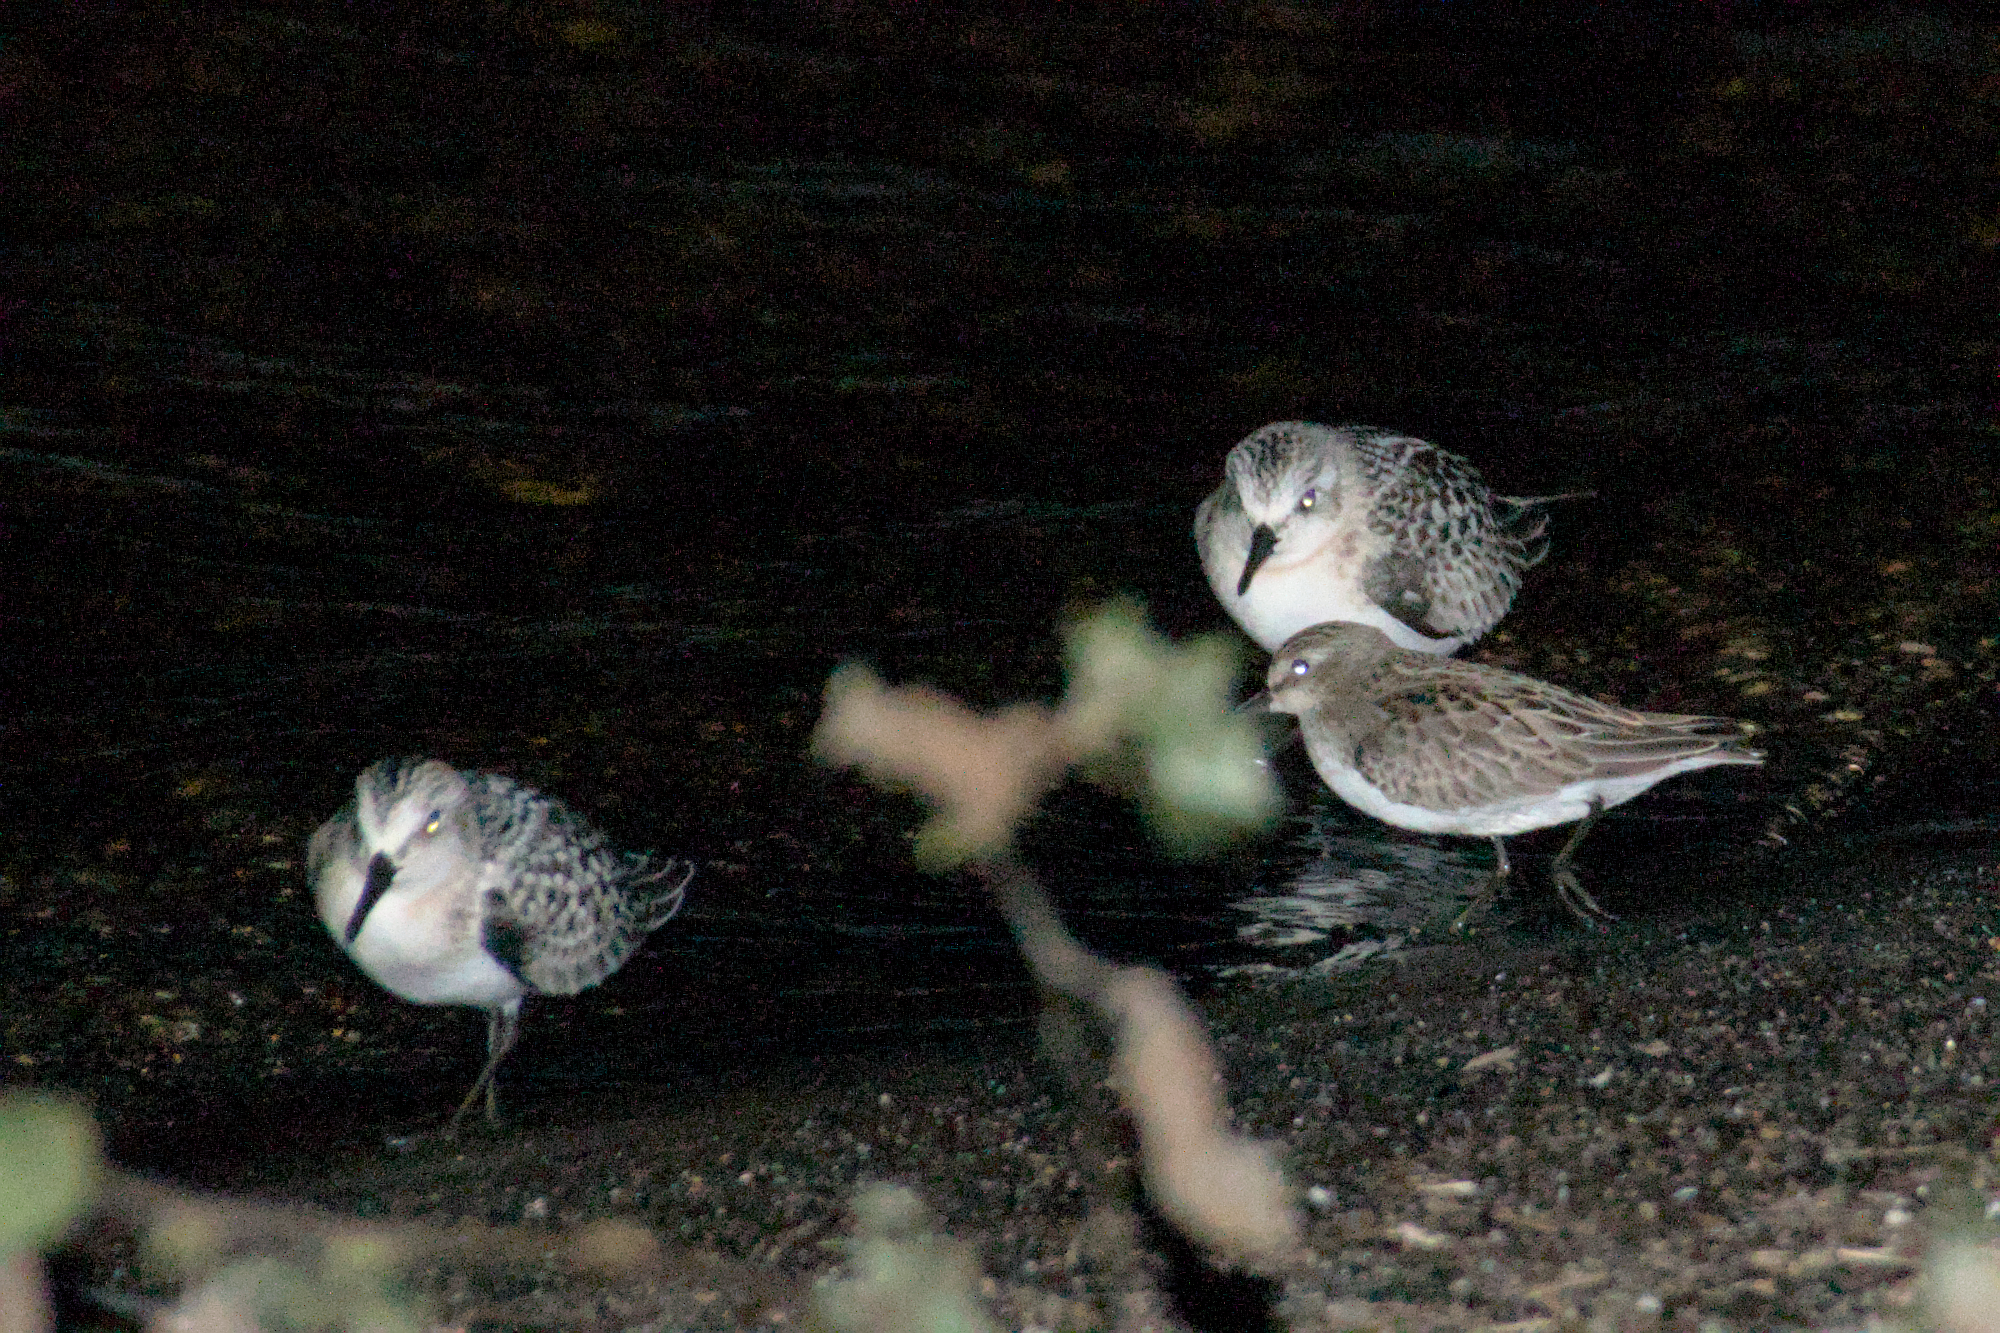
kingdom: Animalia
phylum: Chordata
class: Aves
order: Charadriiformes
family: Scolopacidae
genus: Calidris
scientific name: Calidris alba
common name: Sanderling
